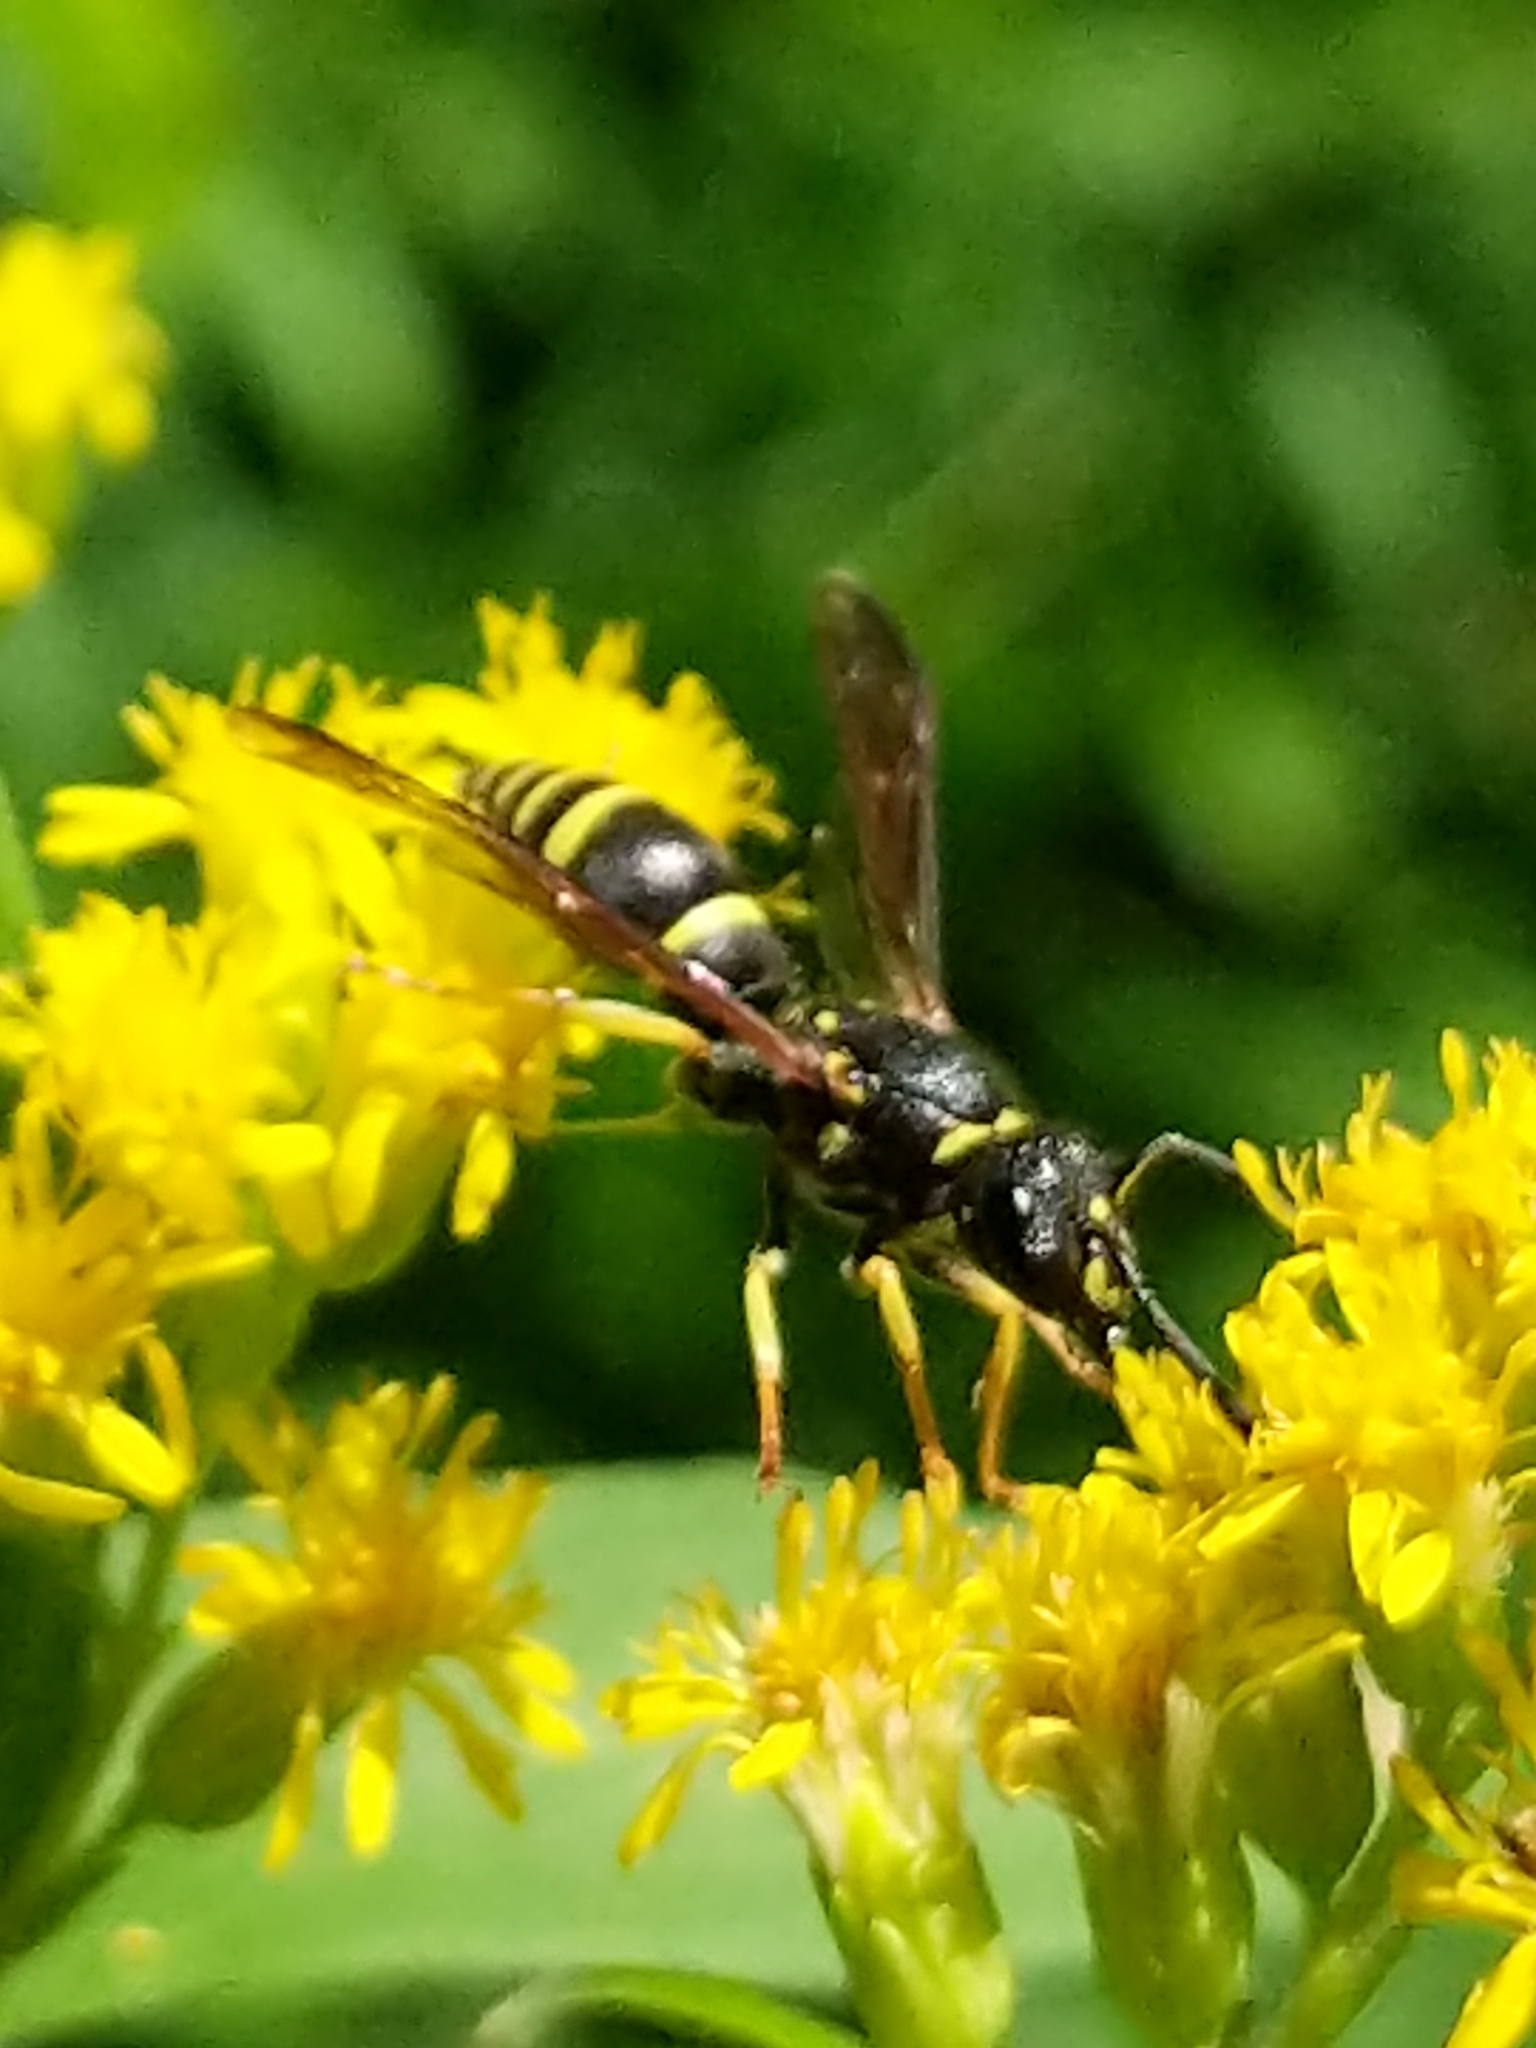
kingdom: Animalia
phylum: Arthropoda
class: Insecta
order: Hymenoptera
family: Vespidae
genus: Ancistrocerus
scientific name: Ancistrocerus adiabatus
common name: Bramble mason wasp
